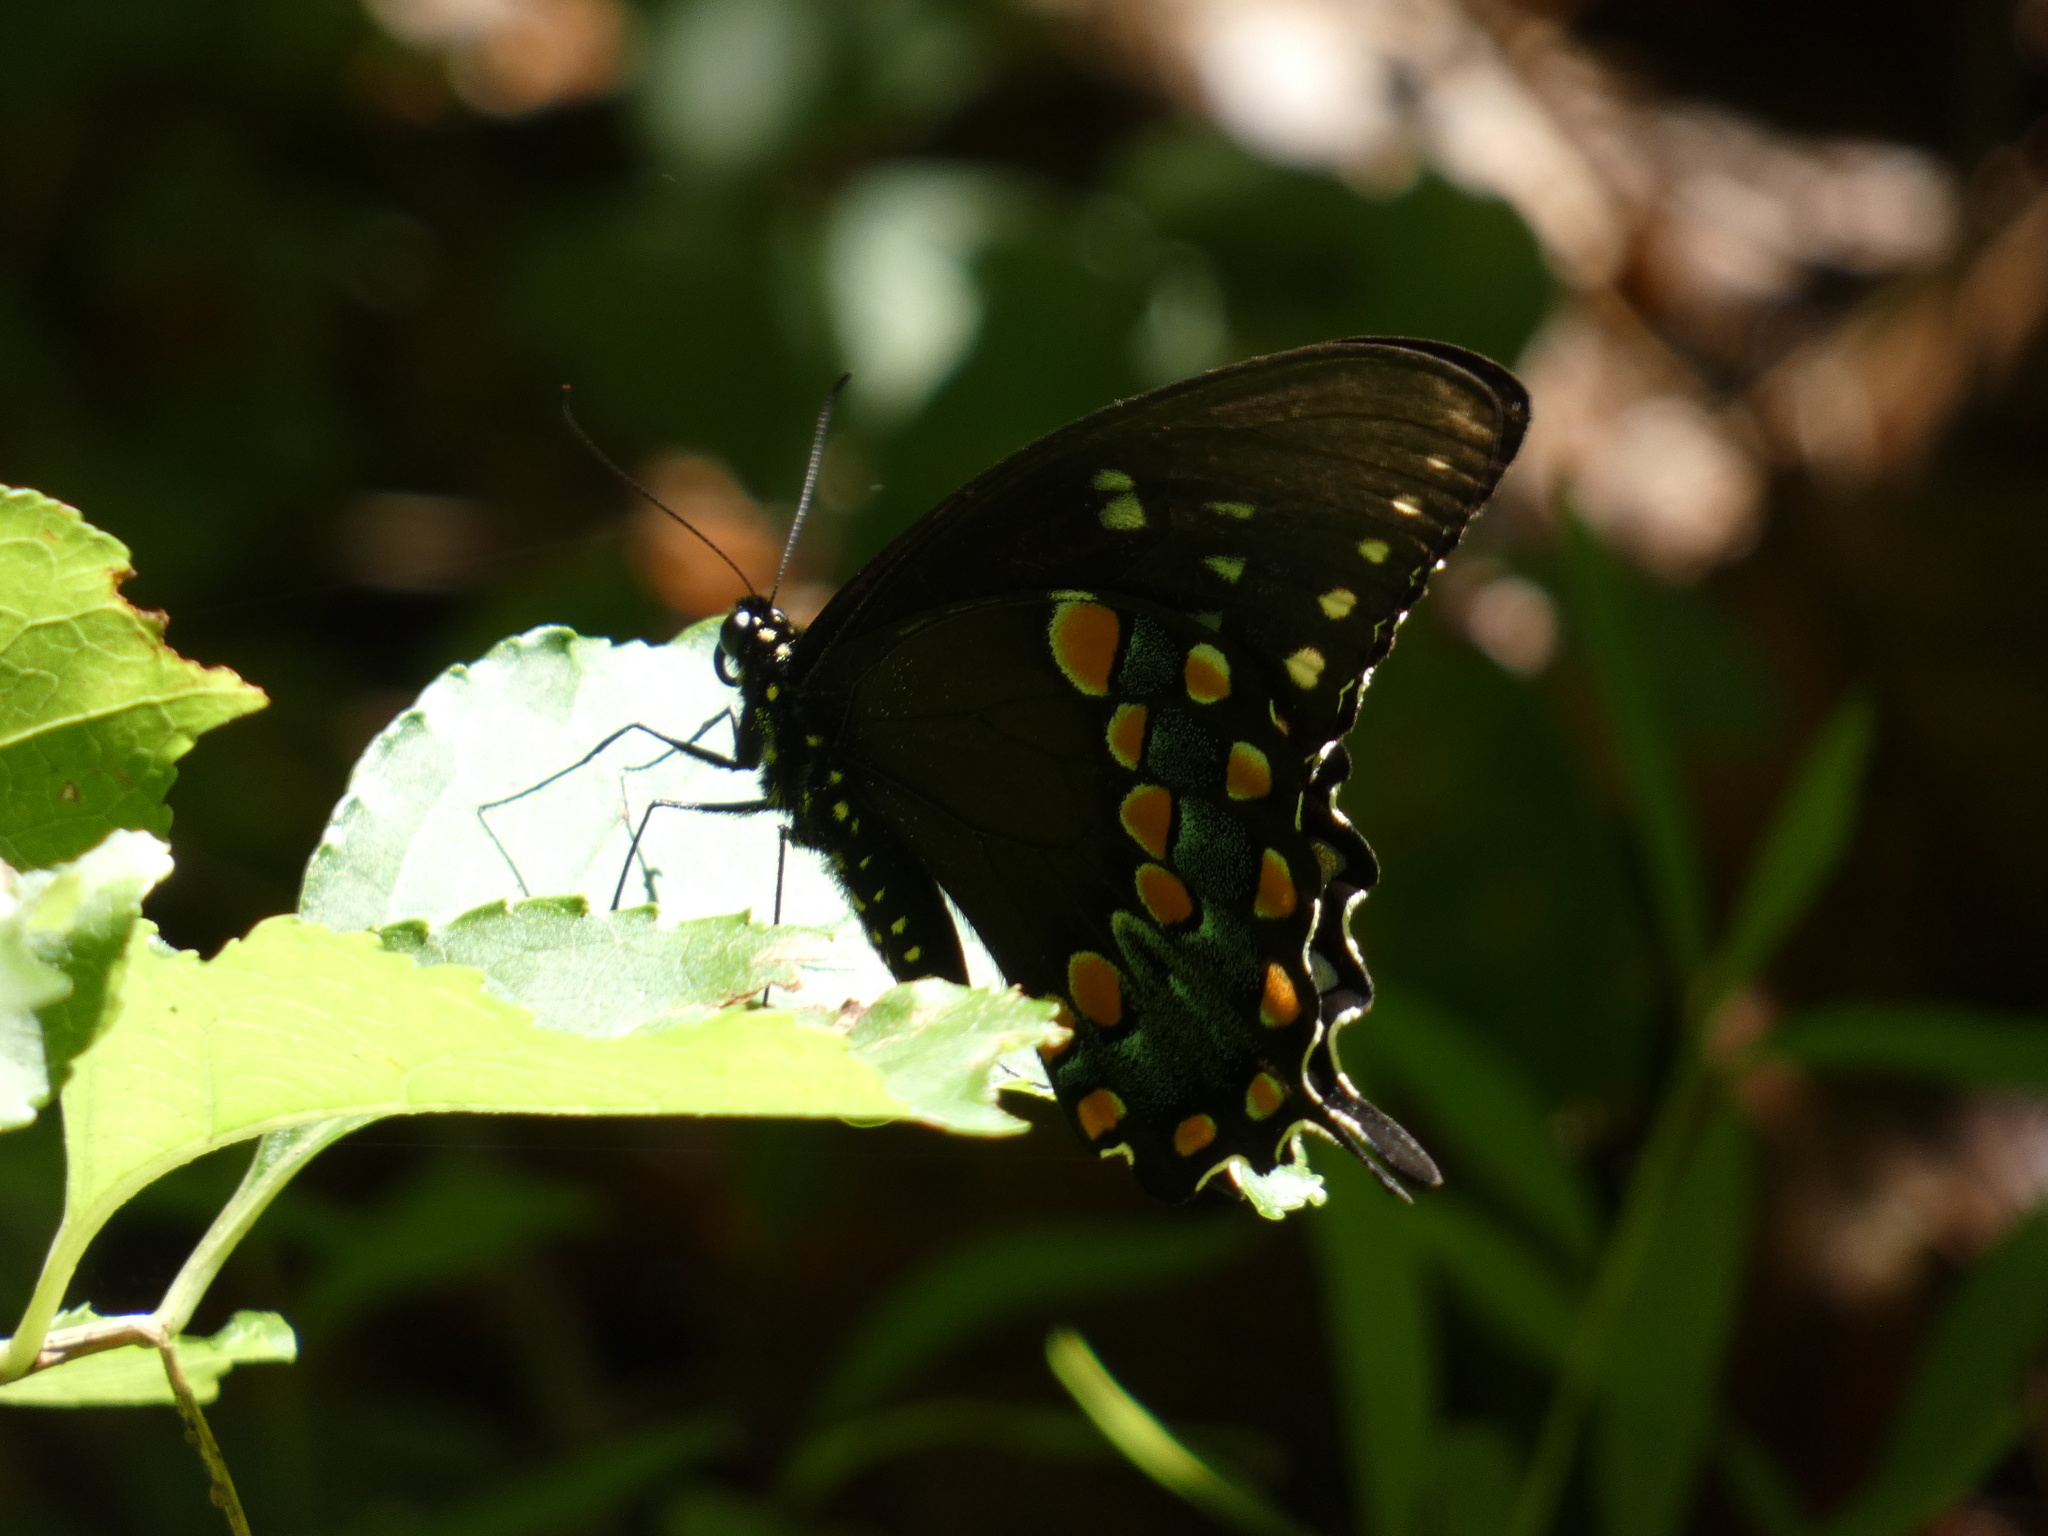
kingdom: Animalia
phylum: Arthropoda
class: Insecta
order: Lepidoptera
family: Papilionidae
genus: Papilio
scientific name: Papilio troilus
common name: Spicebush swallowtail
